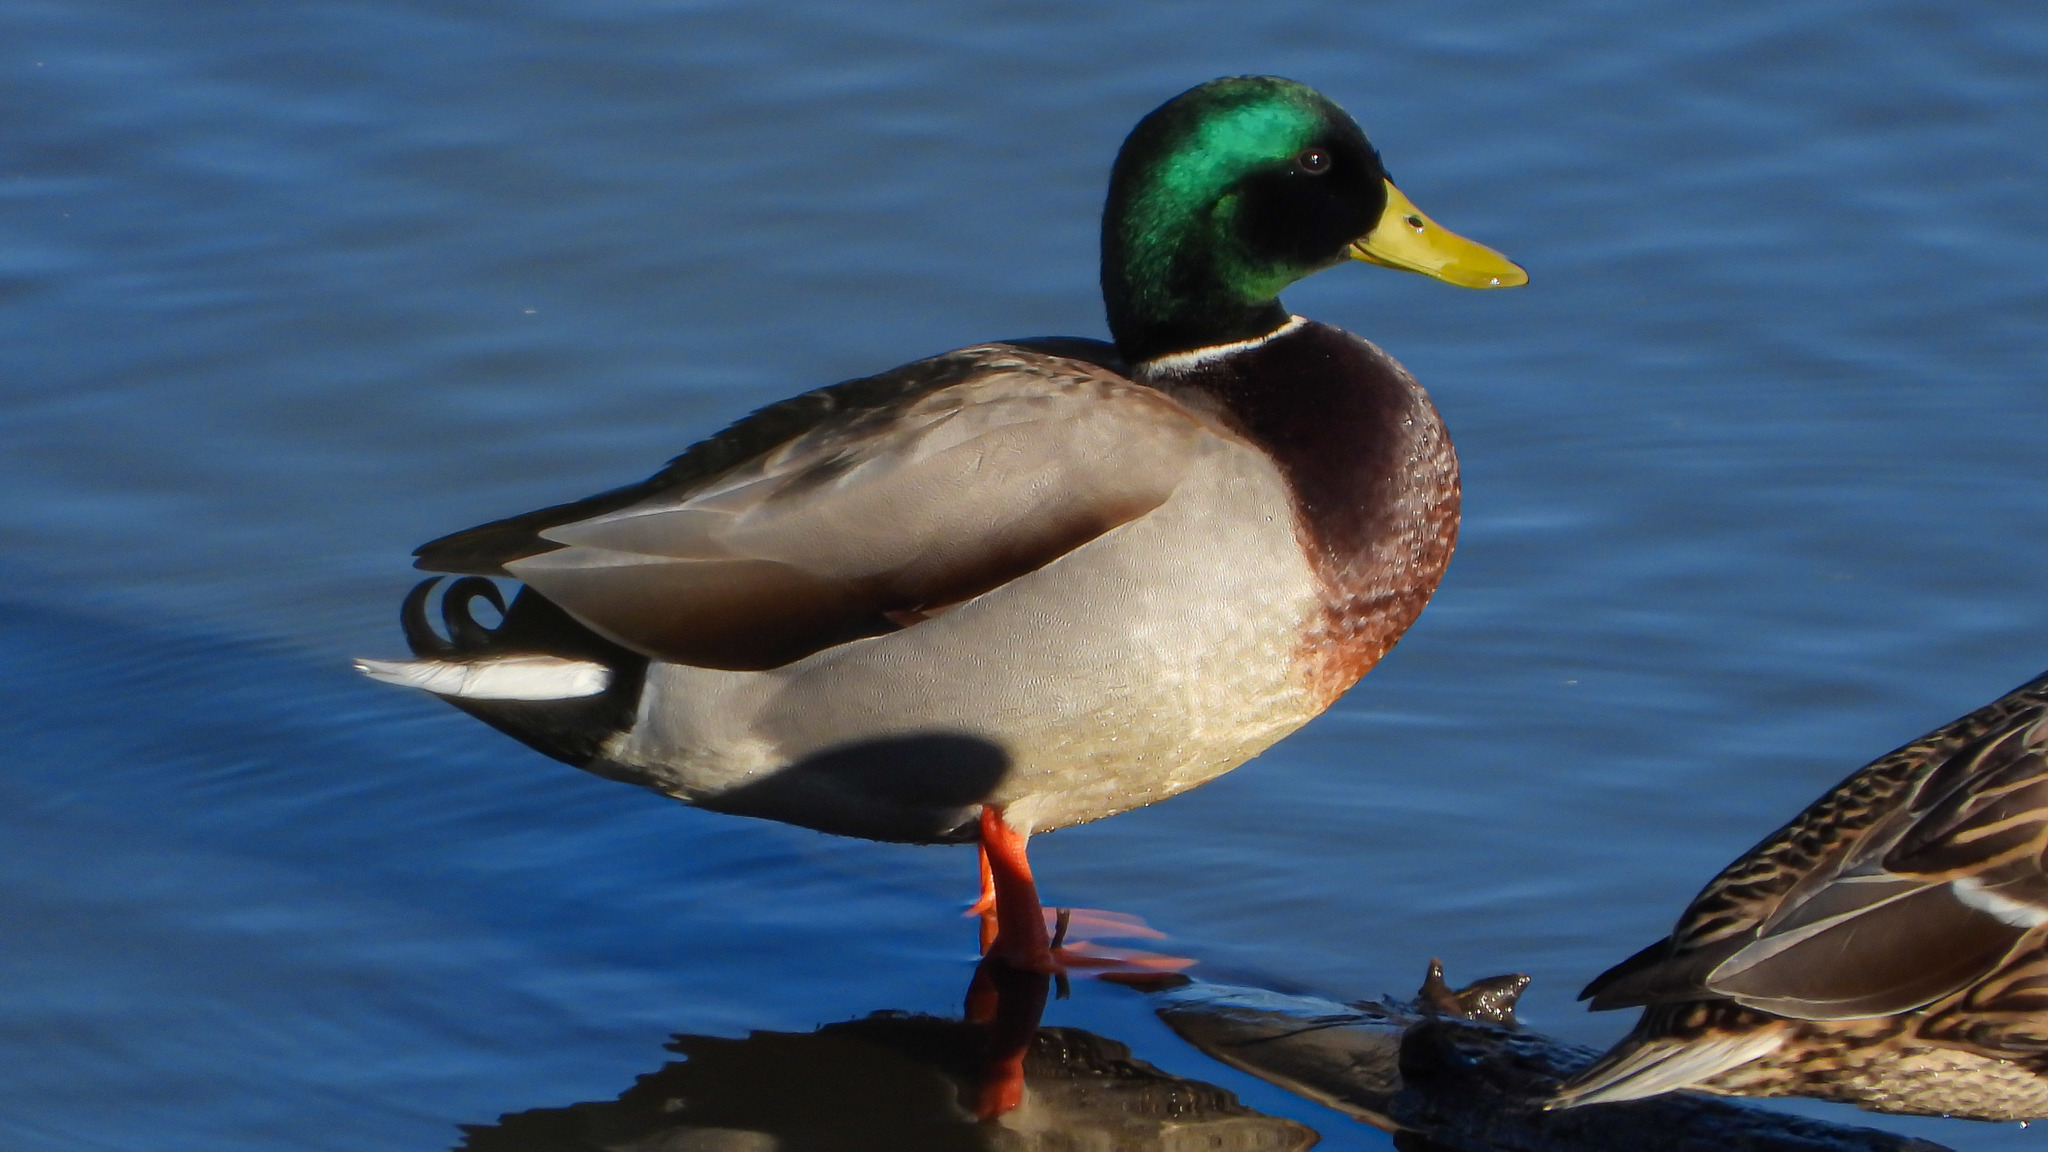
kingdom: Animalia
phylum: Chordata
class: Aves
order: Anseriformes
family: Anatidae
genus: Anas
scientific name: Anas platyrhynchos
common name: Mallard
